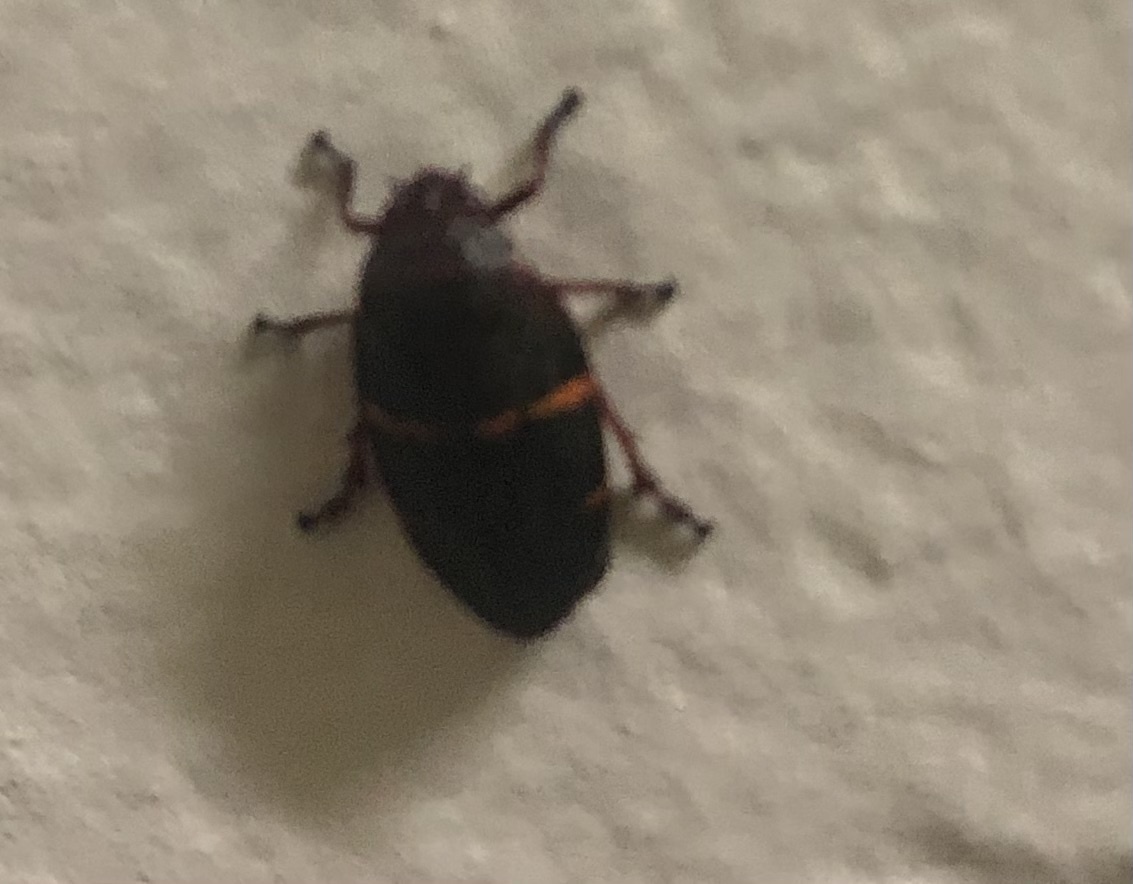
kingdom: Animalia
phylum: Arthropoda
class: Insecta
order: Hemiptera
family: Cercopidae
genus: Prosapia
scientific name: Prosapia bicincta
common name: Twolined spittlebug
